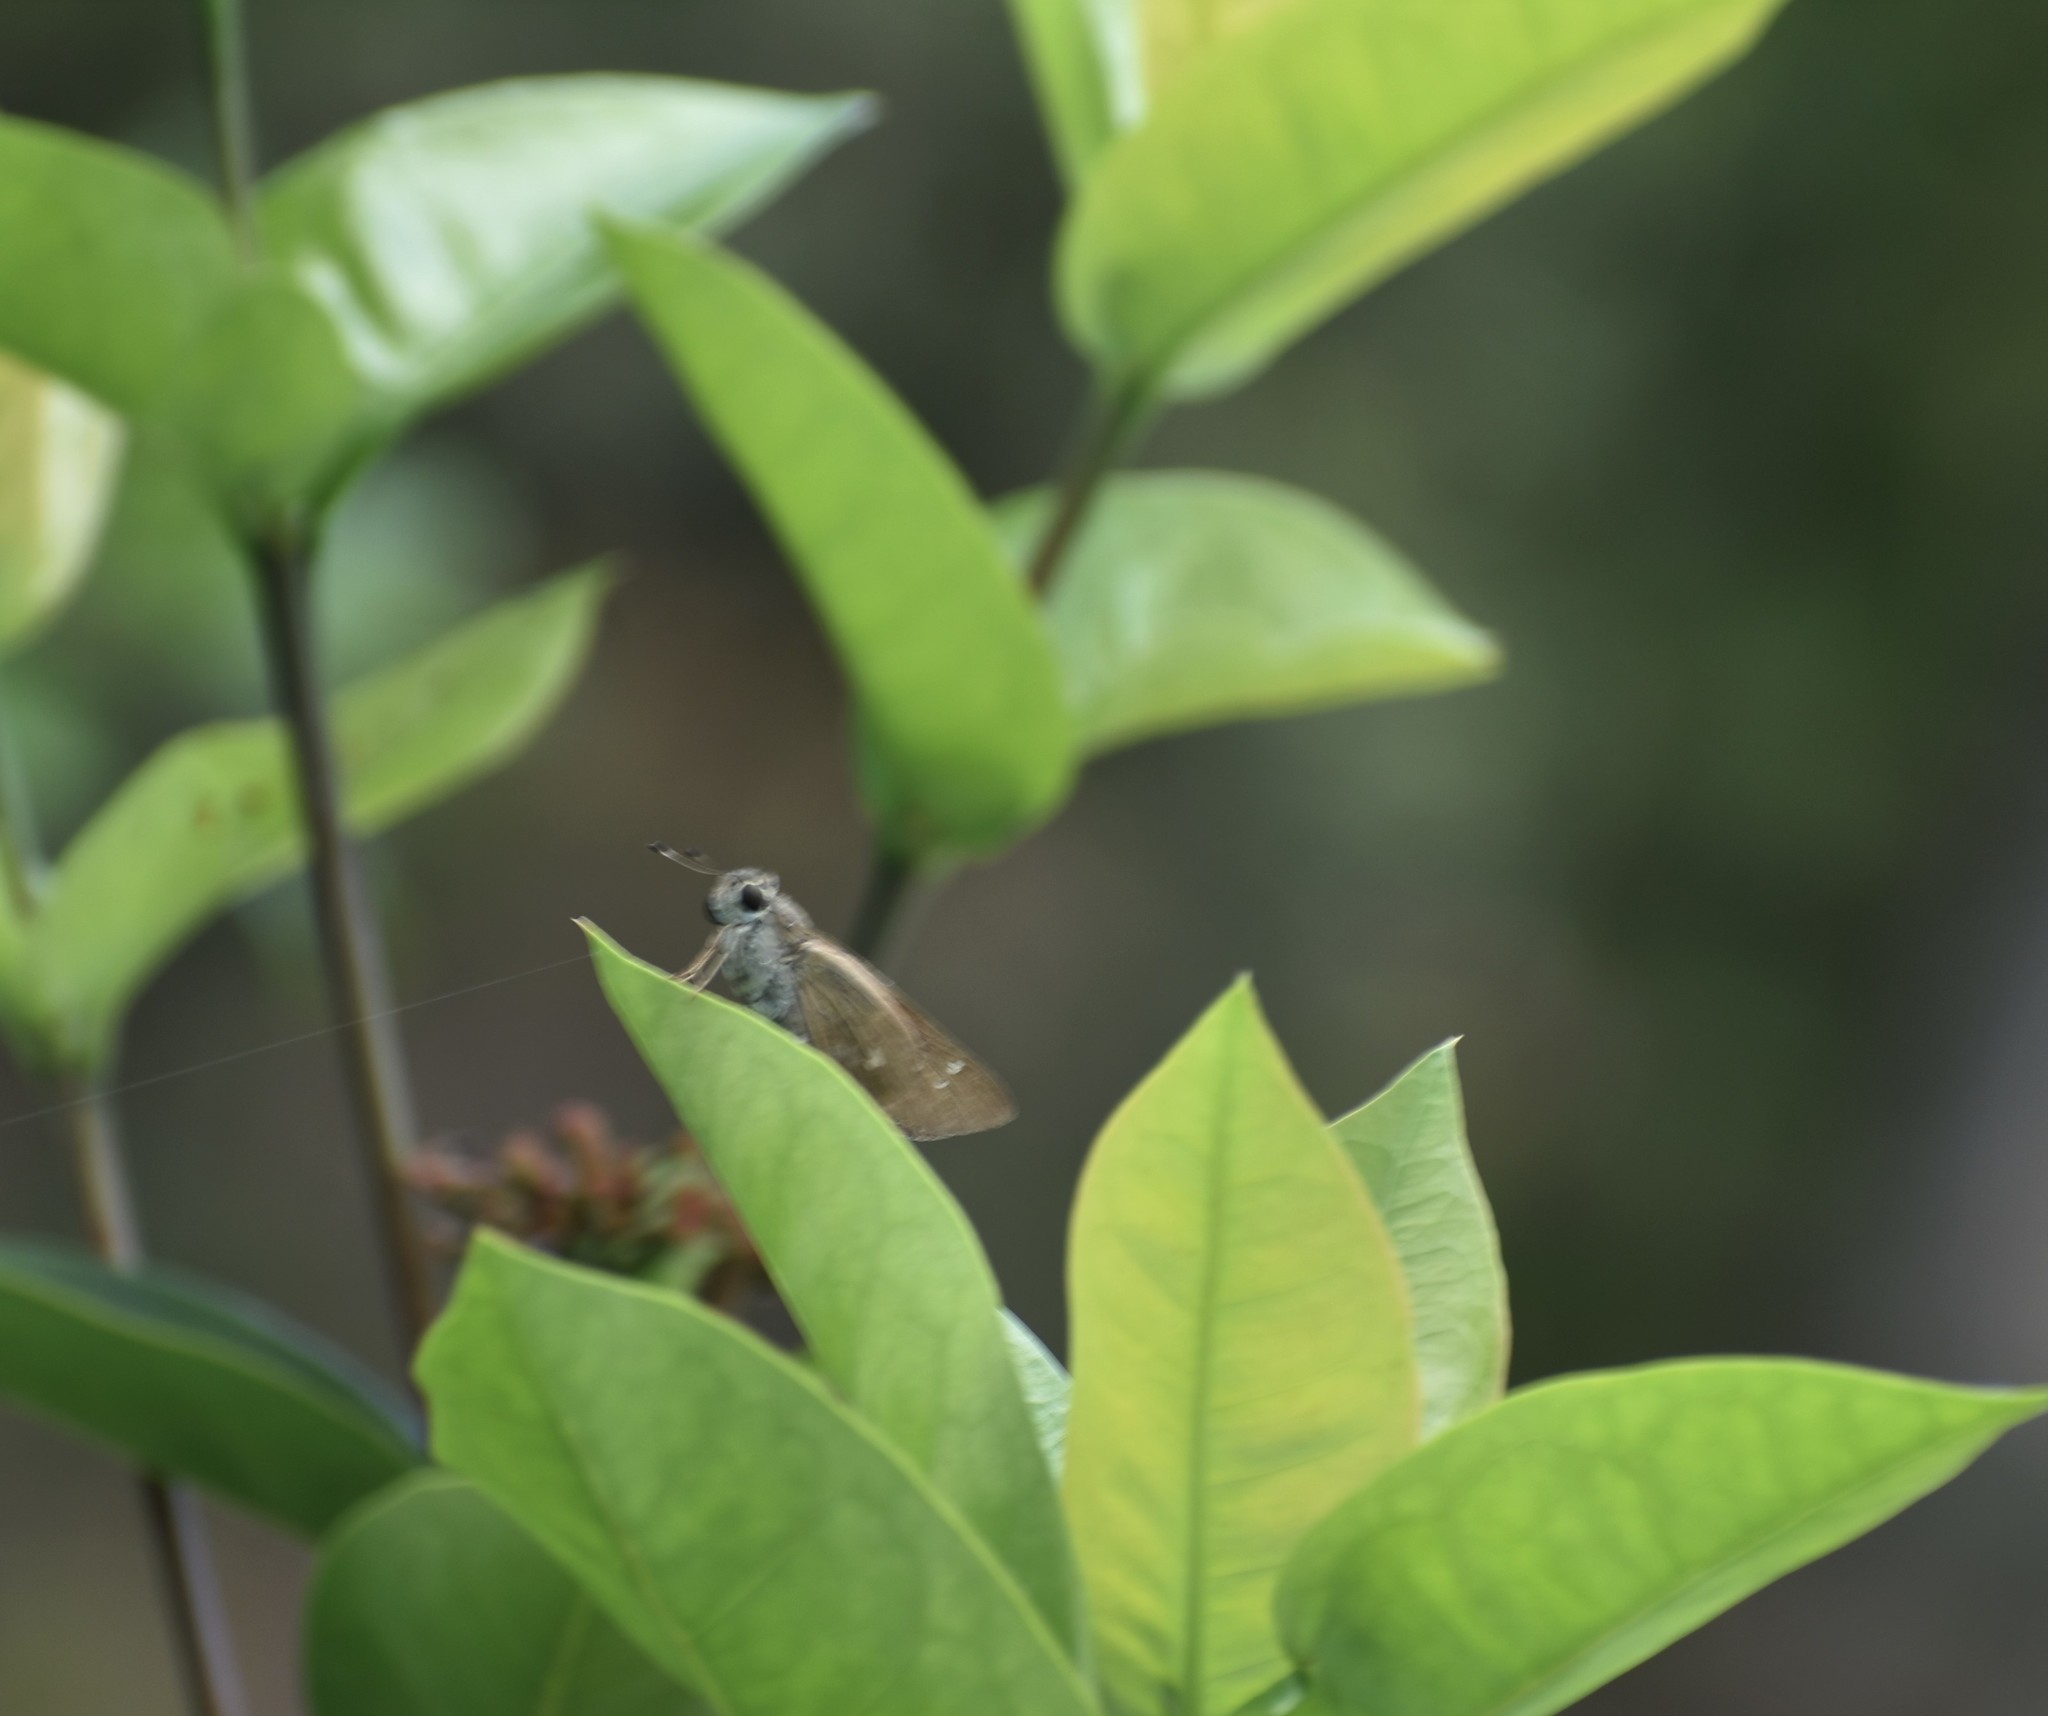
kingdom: Animalia
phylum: Arthropoda
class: Insecta
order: Lepidoptera
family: Hesperiidae
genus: Calpodes
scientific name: Calpodes ethlius
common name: Brazilian skipper
